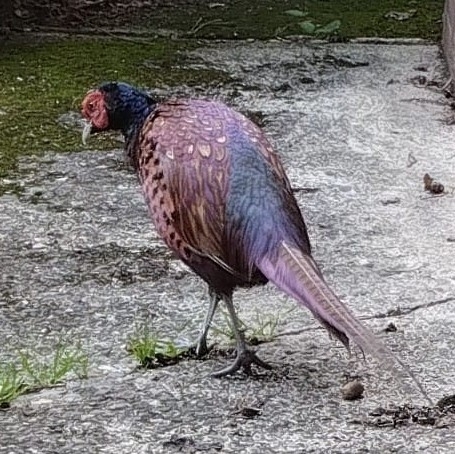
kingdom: Animalia
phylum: Chordata
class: Aves
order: Galliformes
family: Phasianidae
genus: Phasianus
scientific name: Phasianus colchicus
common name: Common pheasant
